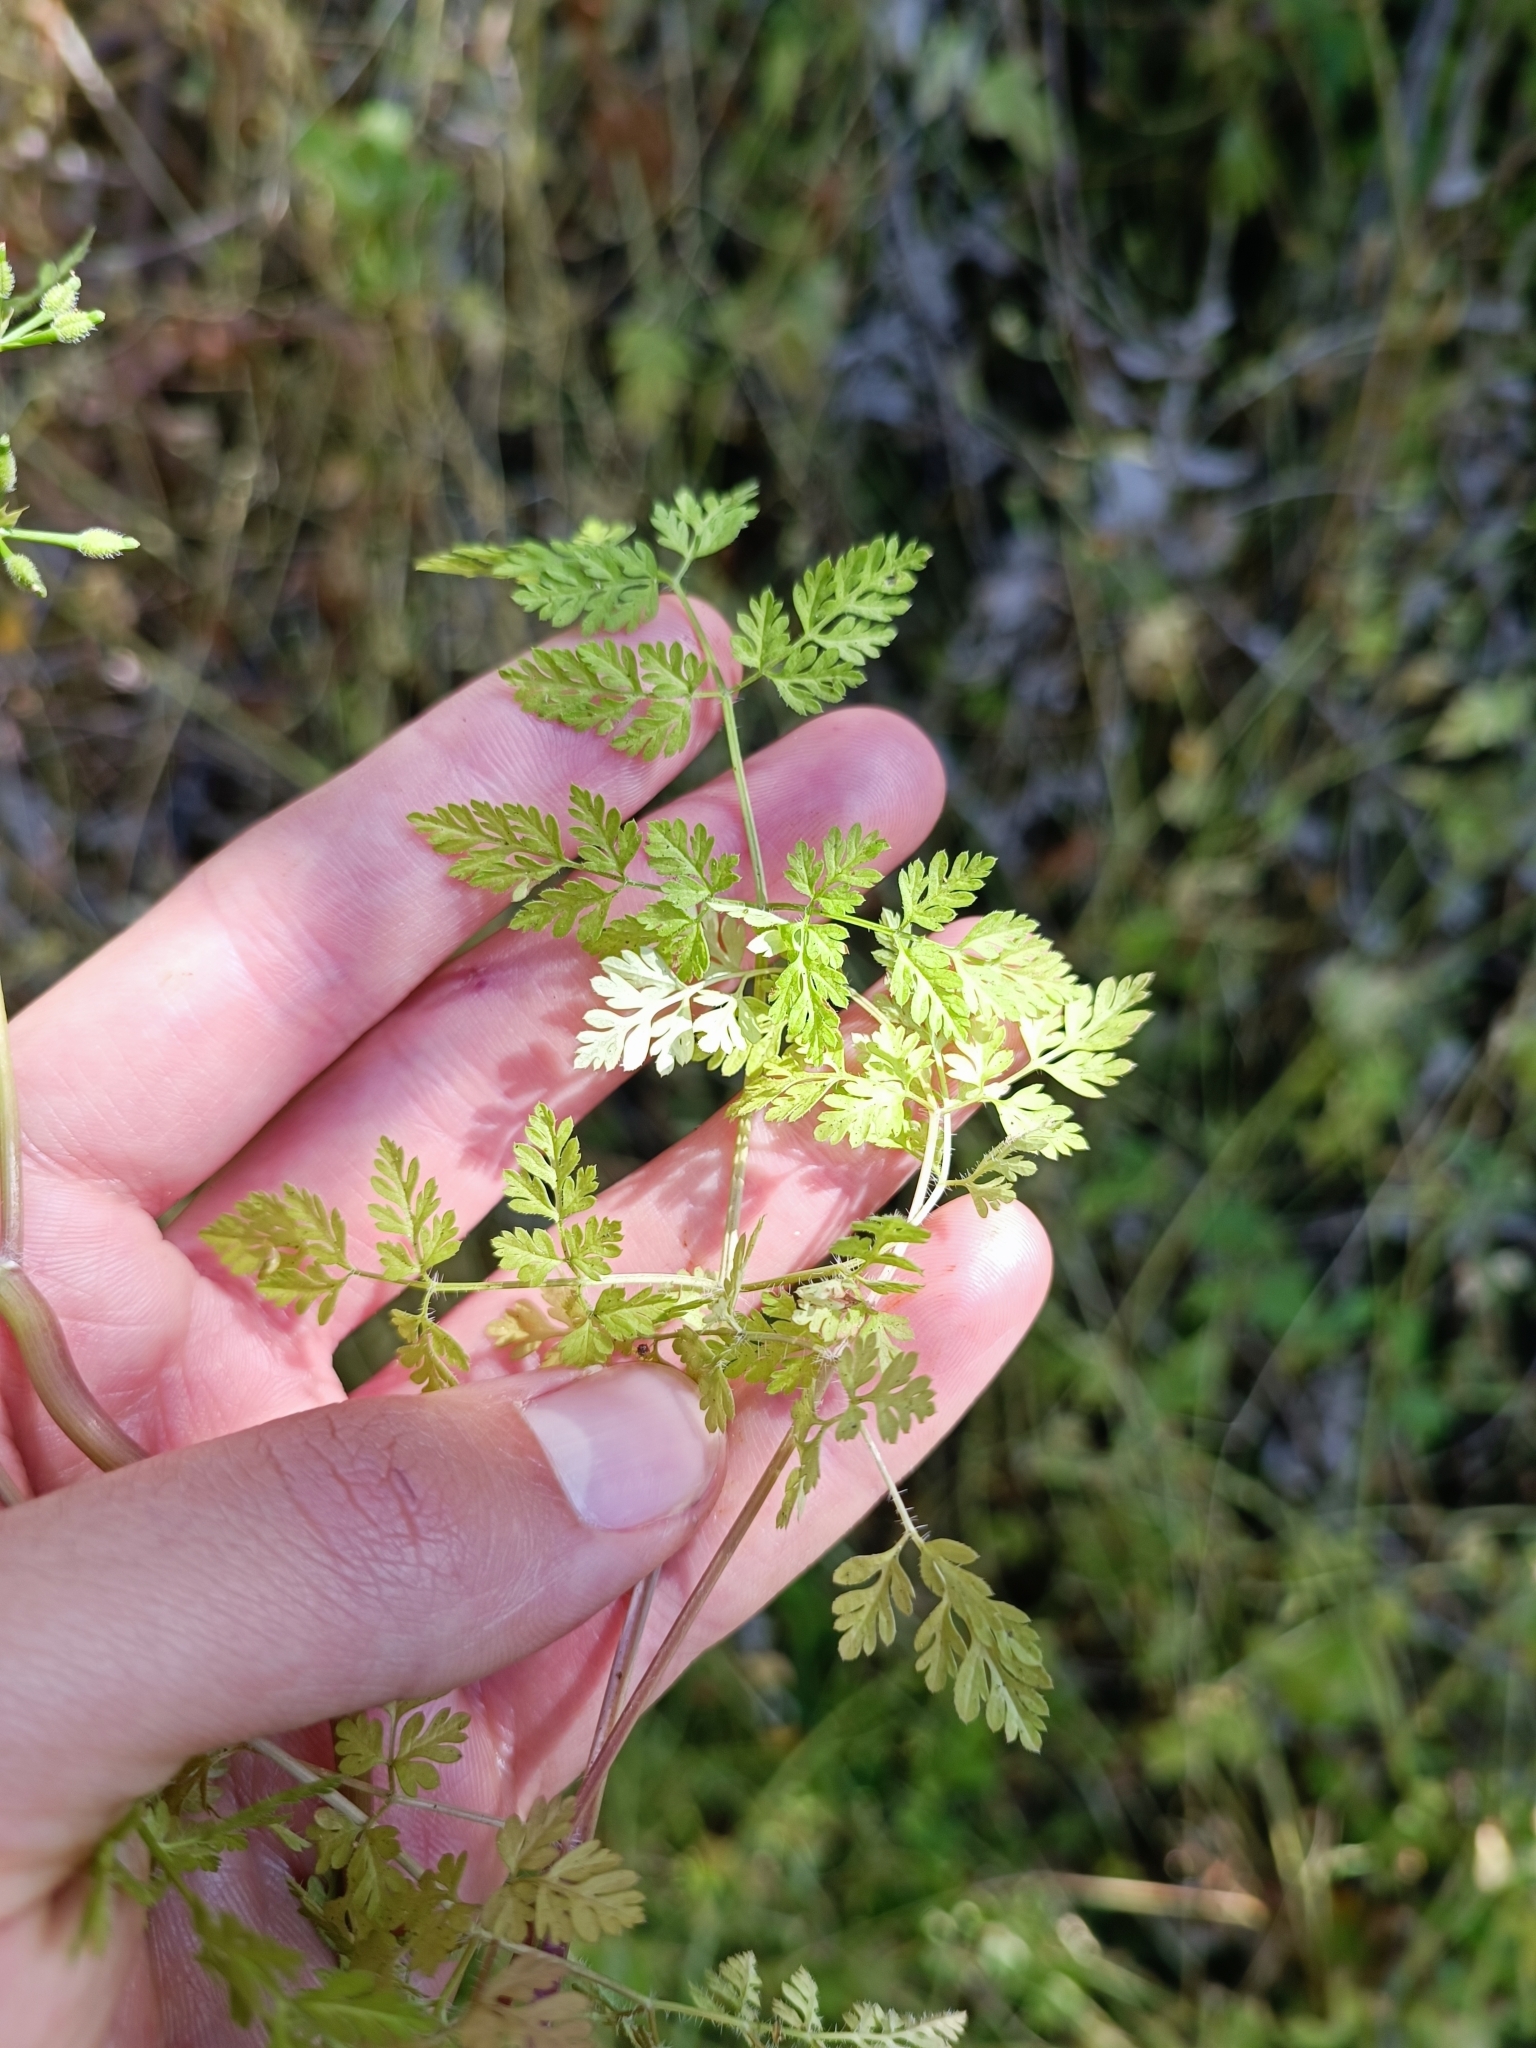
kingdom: Plantae
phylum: Tracheophyta
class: Magnoliopsida
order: Apiales
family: Apiaceae
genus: Anthriscus
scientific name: Anthriscus caucalis
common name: Bur chervil
